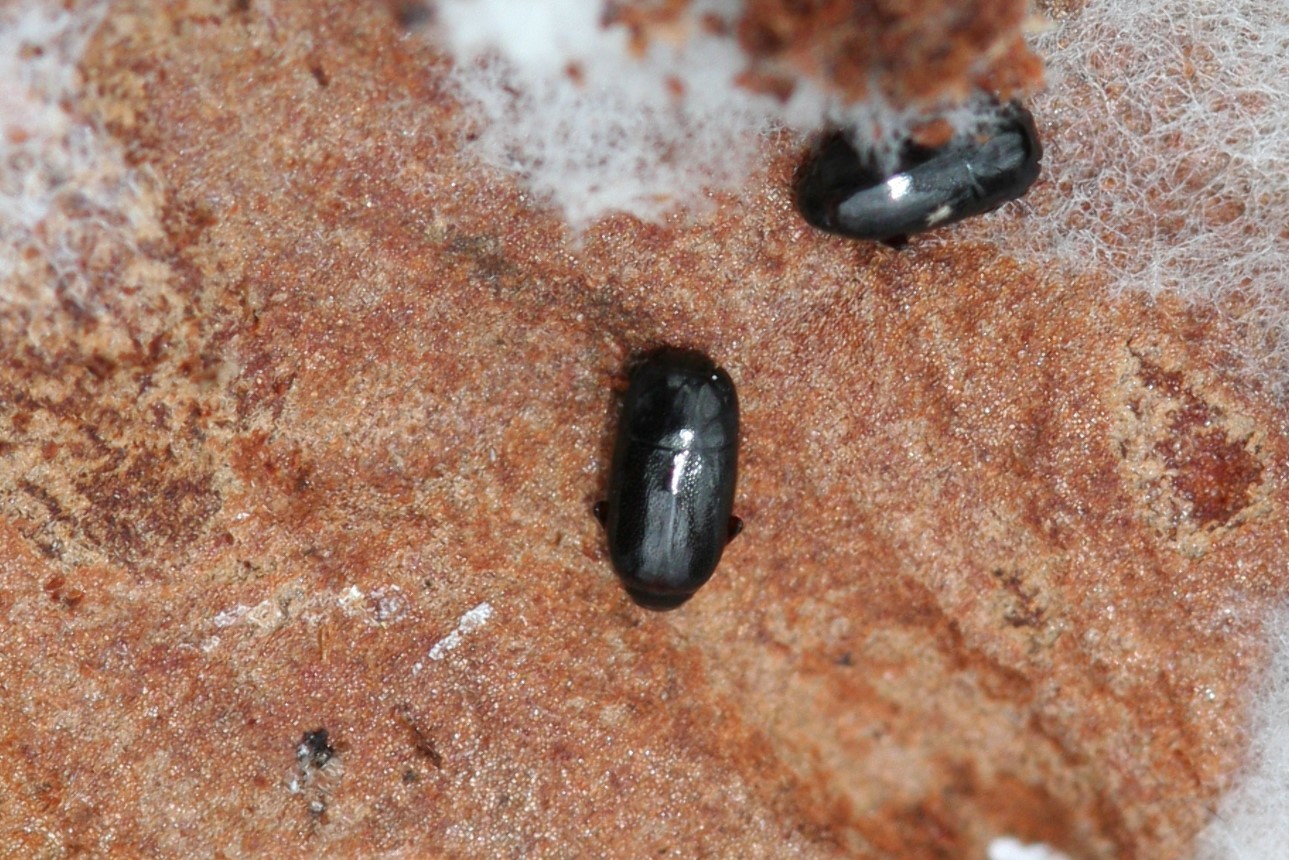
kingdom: Animalia
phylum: Arthropoda
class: Insecta
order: Coleoptera
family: Histeridae
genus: Paromalus
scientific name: Paromalus parallelepipedus
